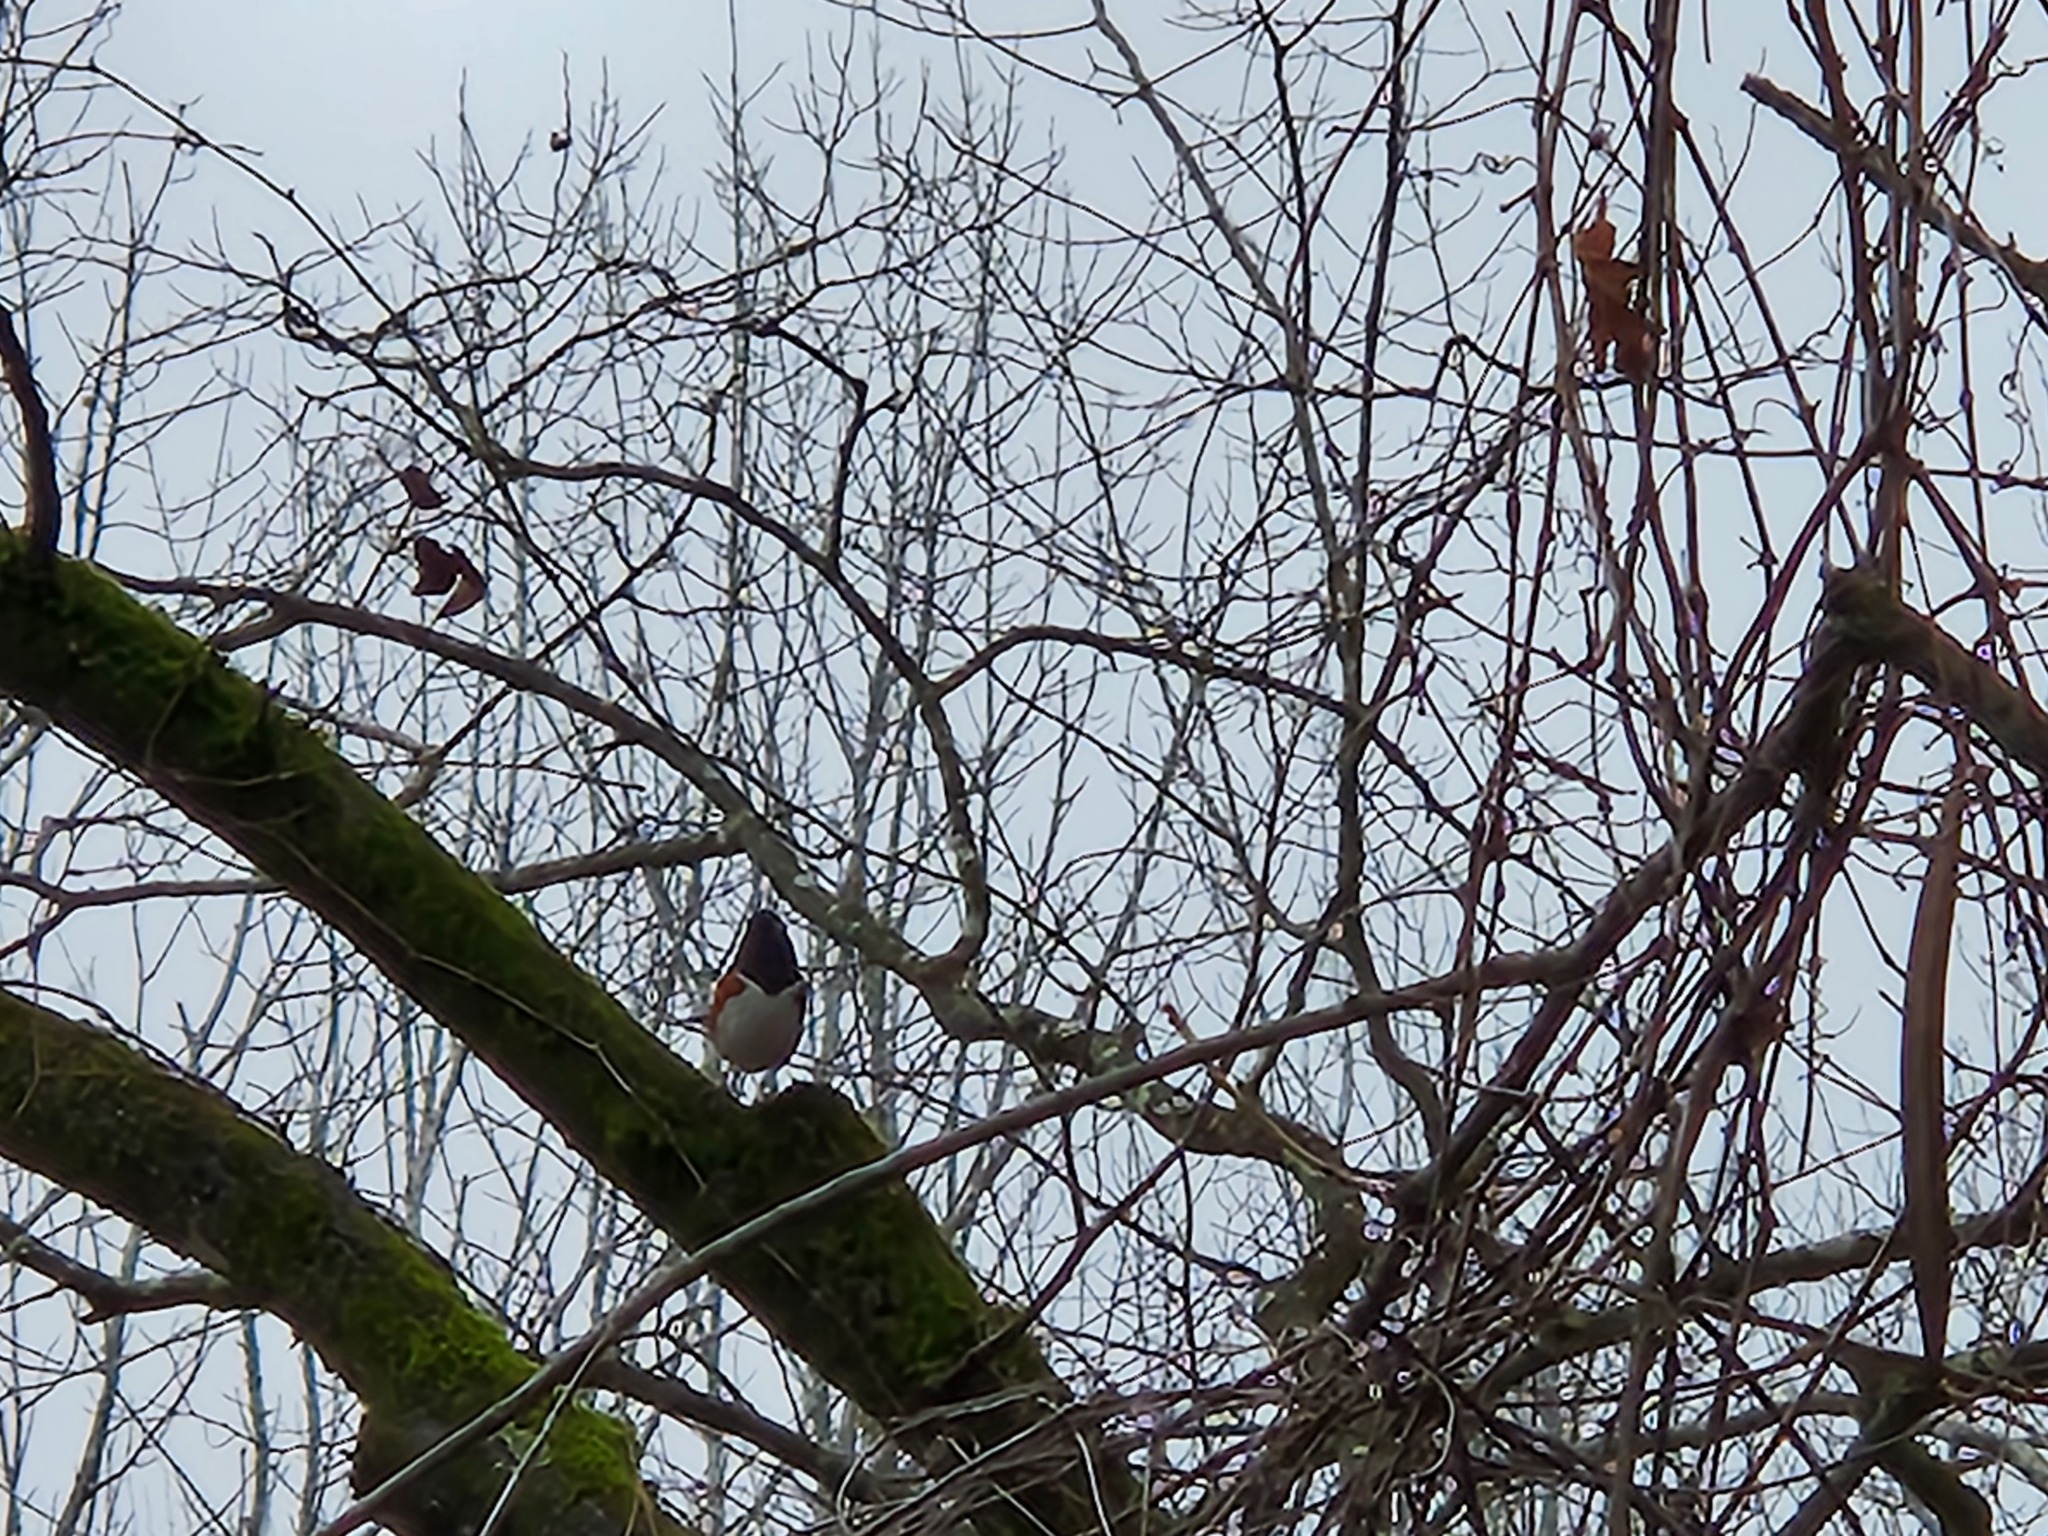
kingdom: Animalia
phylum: Chordata
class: Aves
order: Passeriformes
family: Passerellidae
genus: Pipilo
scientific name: Pipilo erythrophthalmus
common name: Eastern towhee
